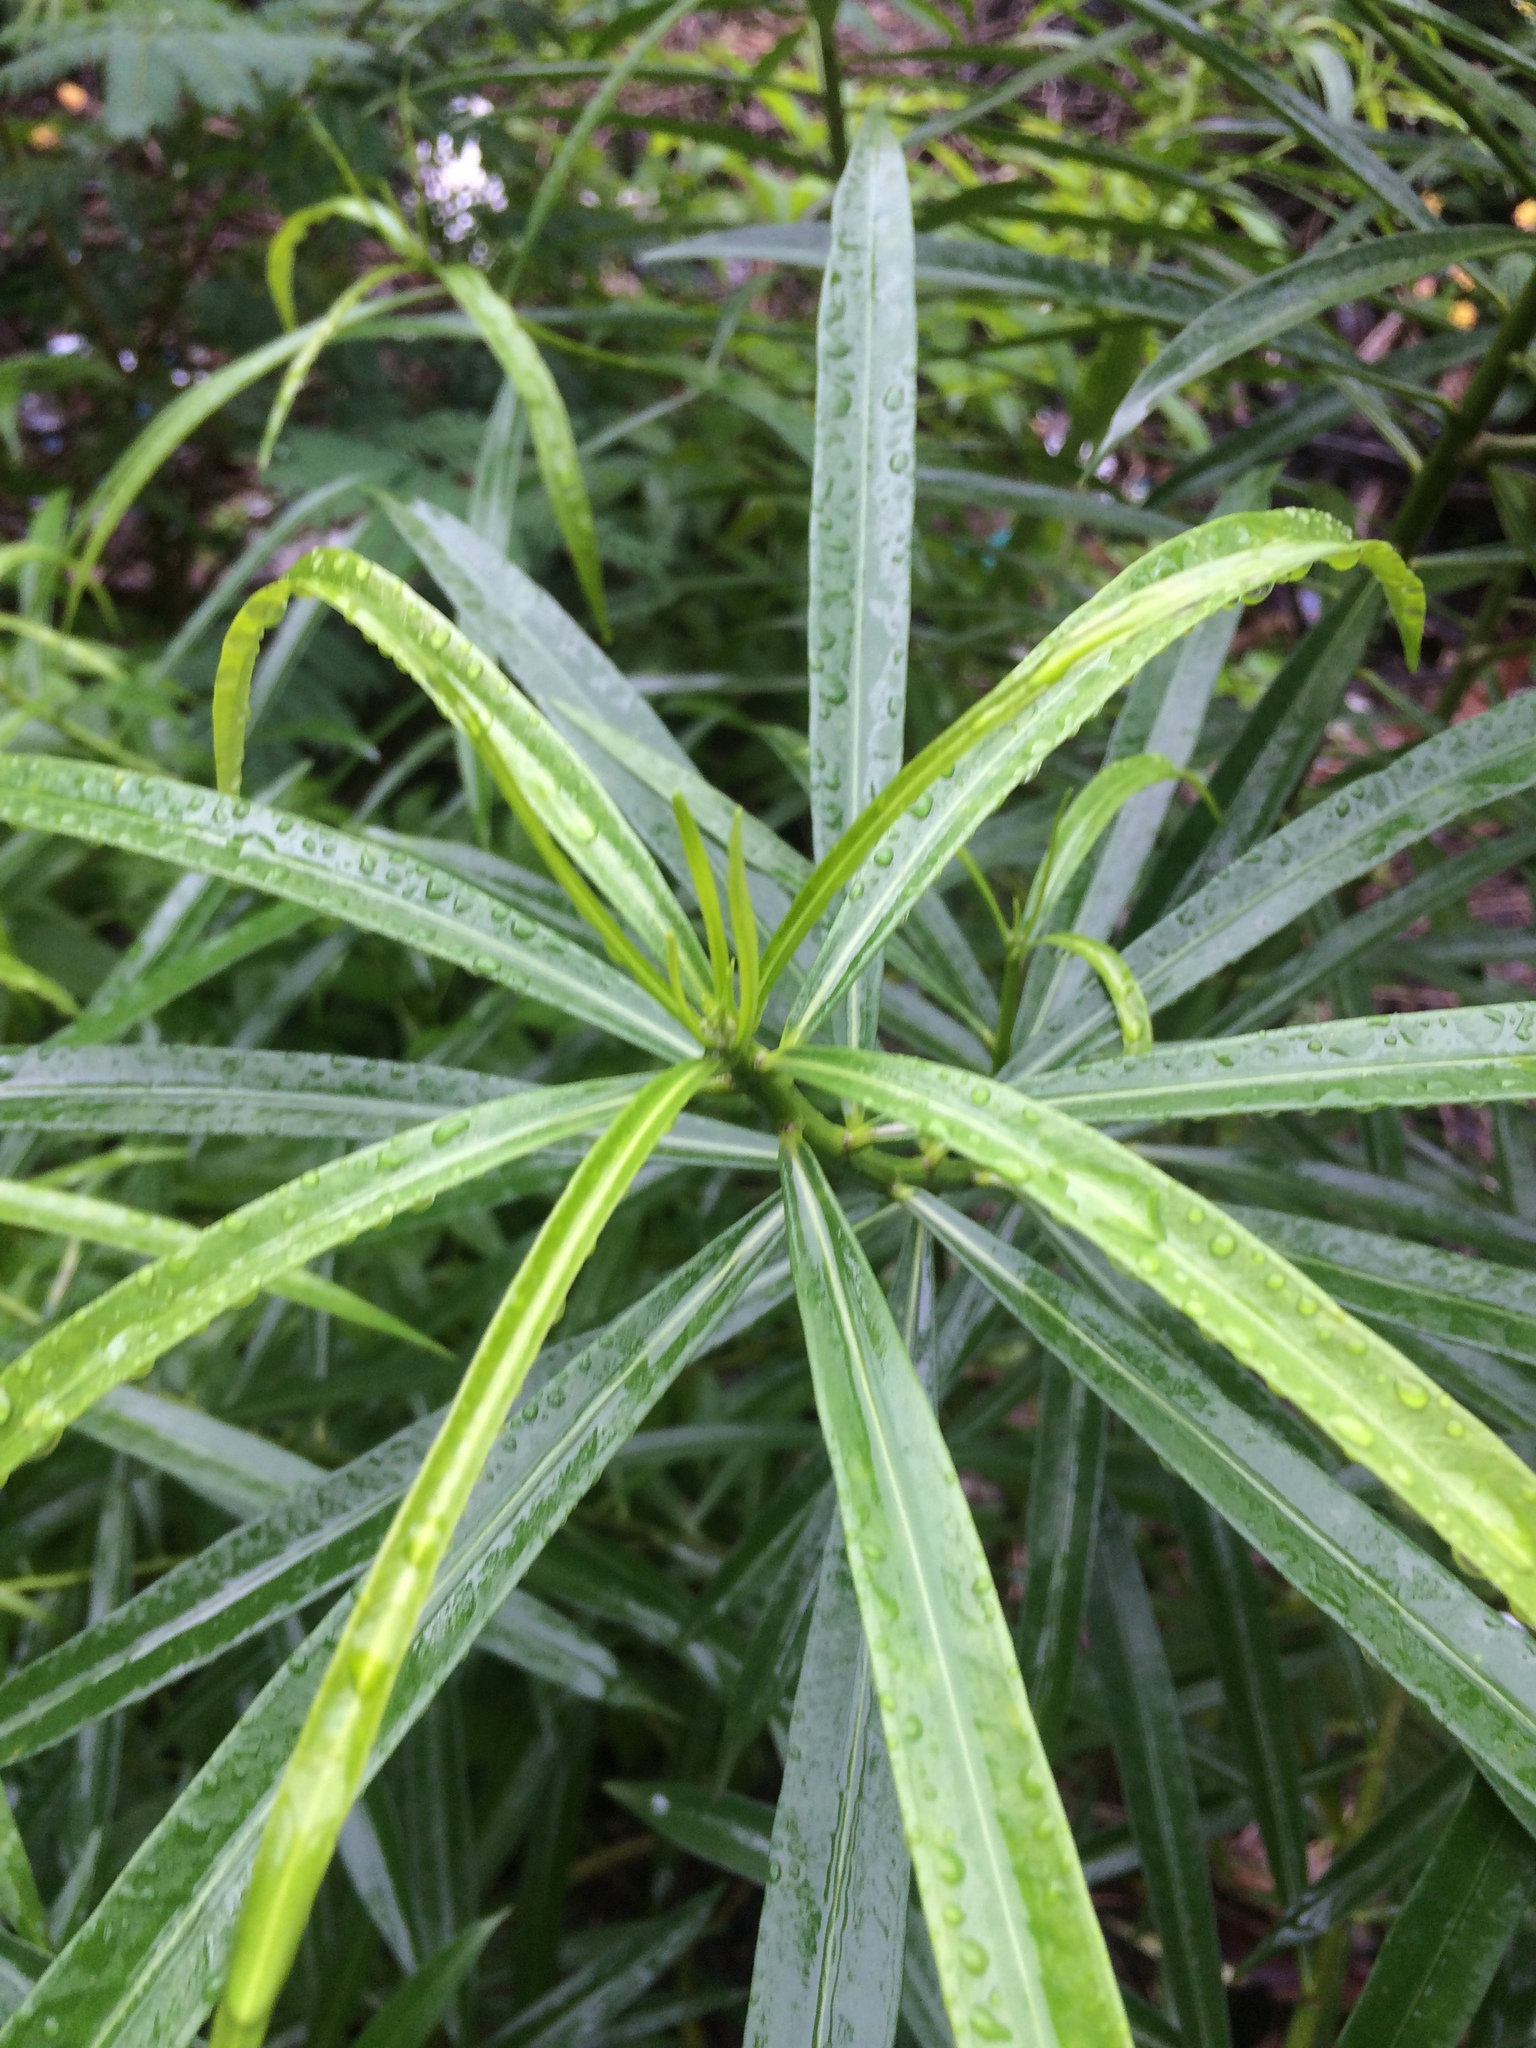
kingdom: Plantae
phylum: Tracheophyta
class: Magnoliopsida
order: Gentianales
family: Apocynaceae
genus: Cascabela
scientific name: Cascabela thevetia
